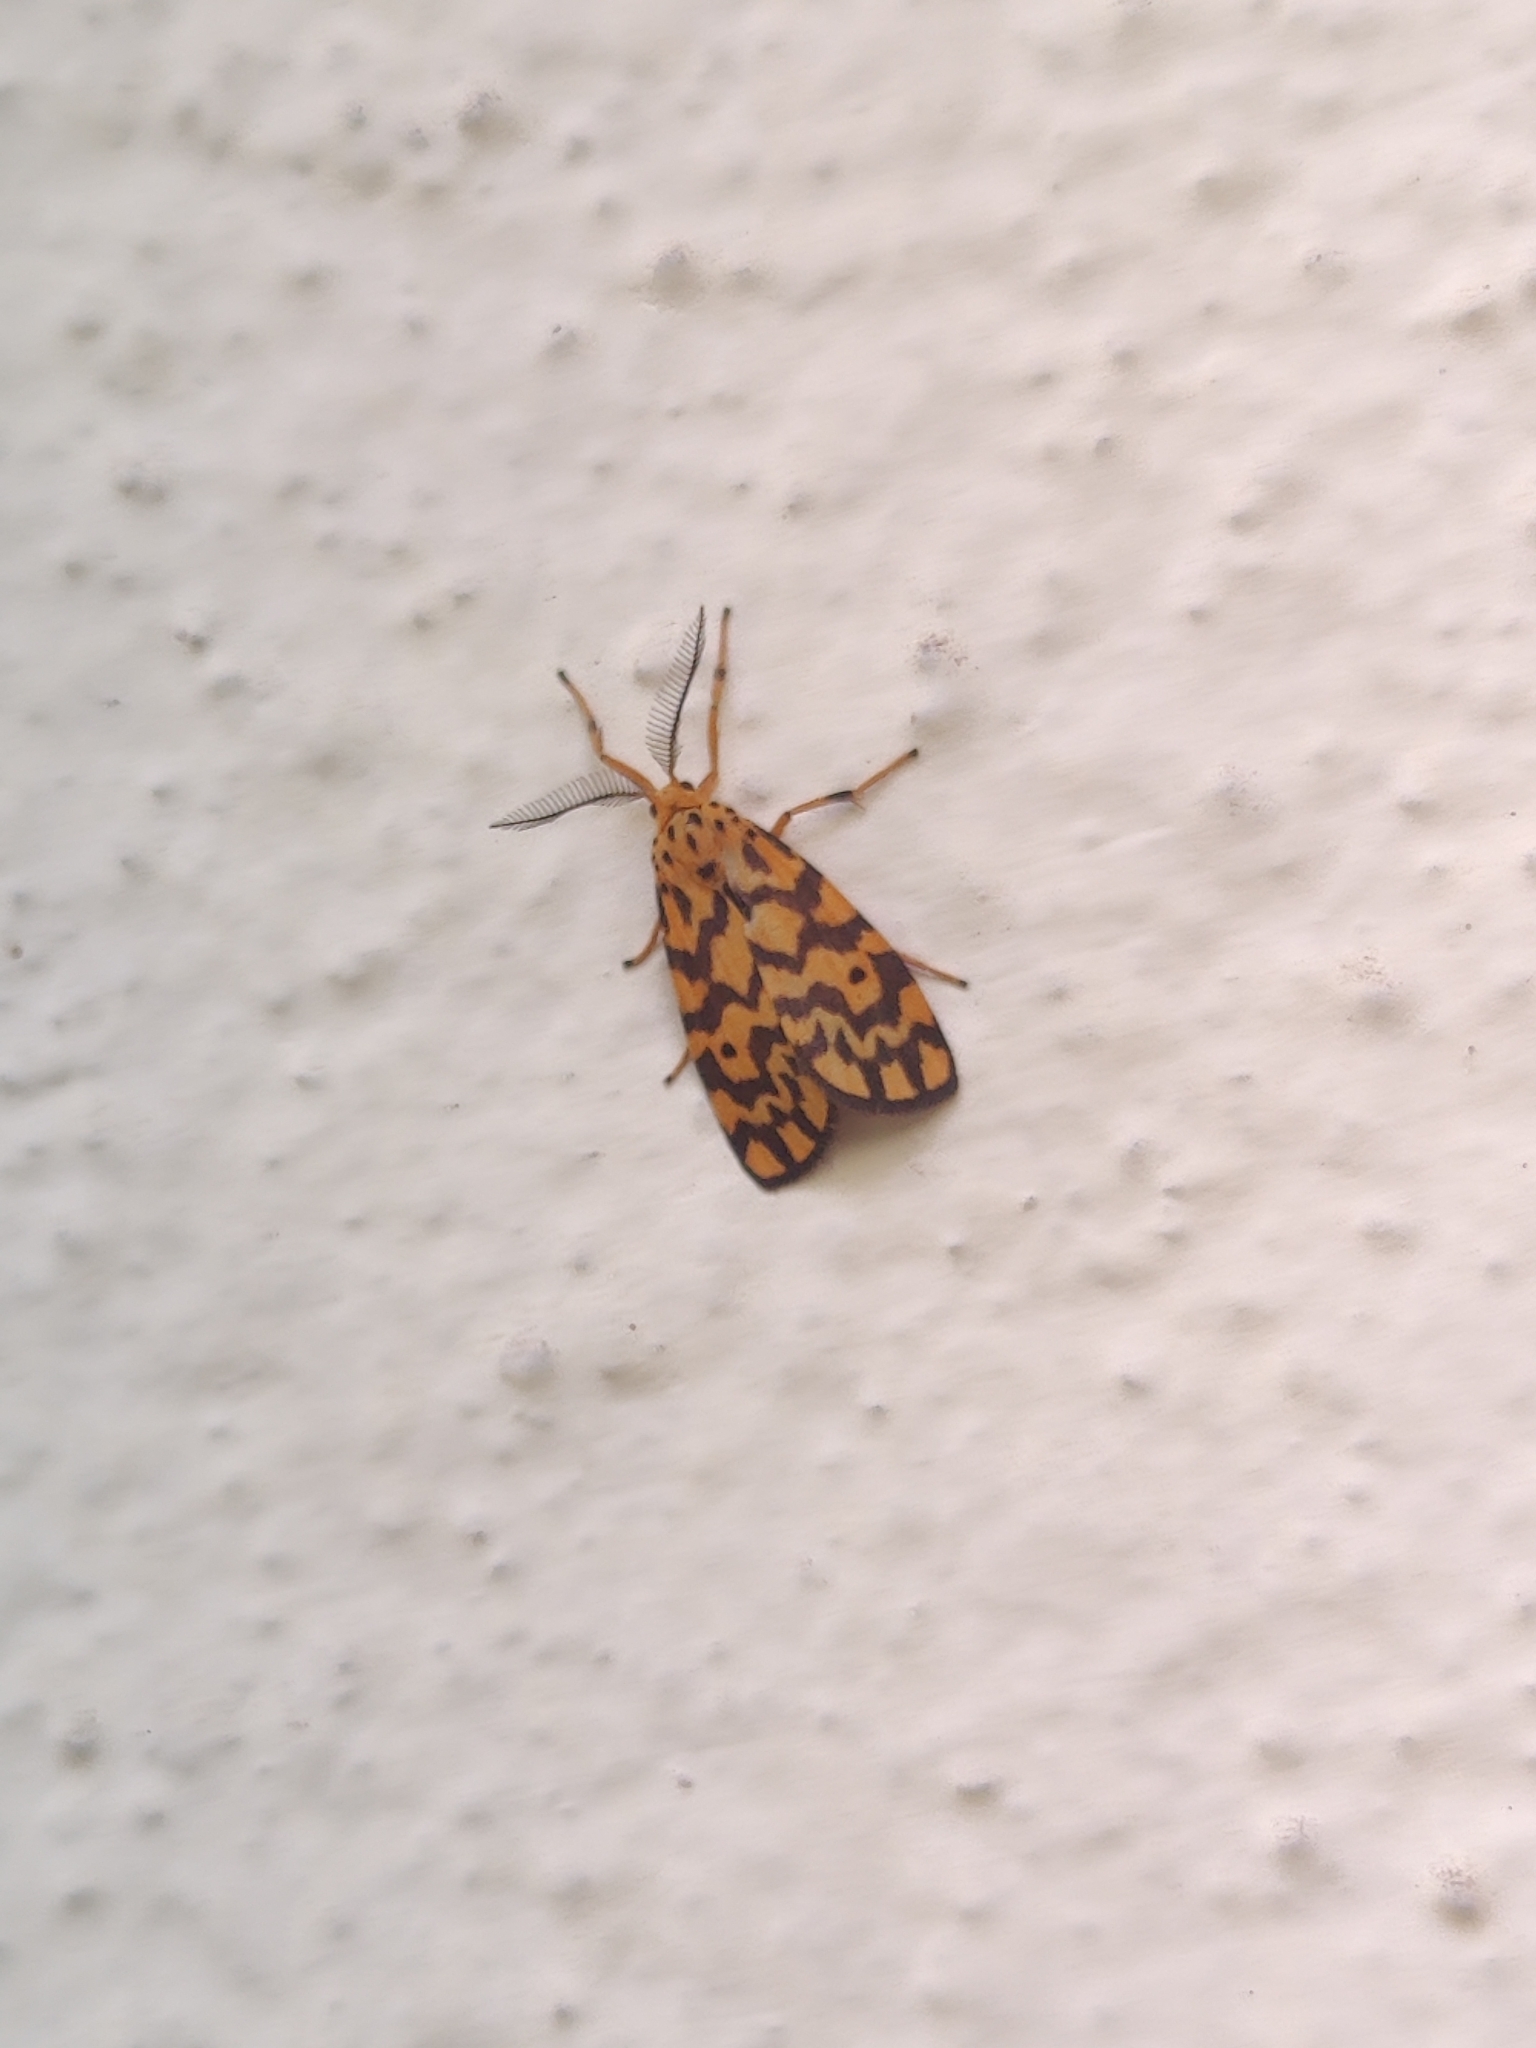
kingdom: Animalia
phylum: Arthropoda
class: Insecta
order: Lepidoptera
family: Erebidae
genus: Nepita
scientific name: Nepita conferta
